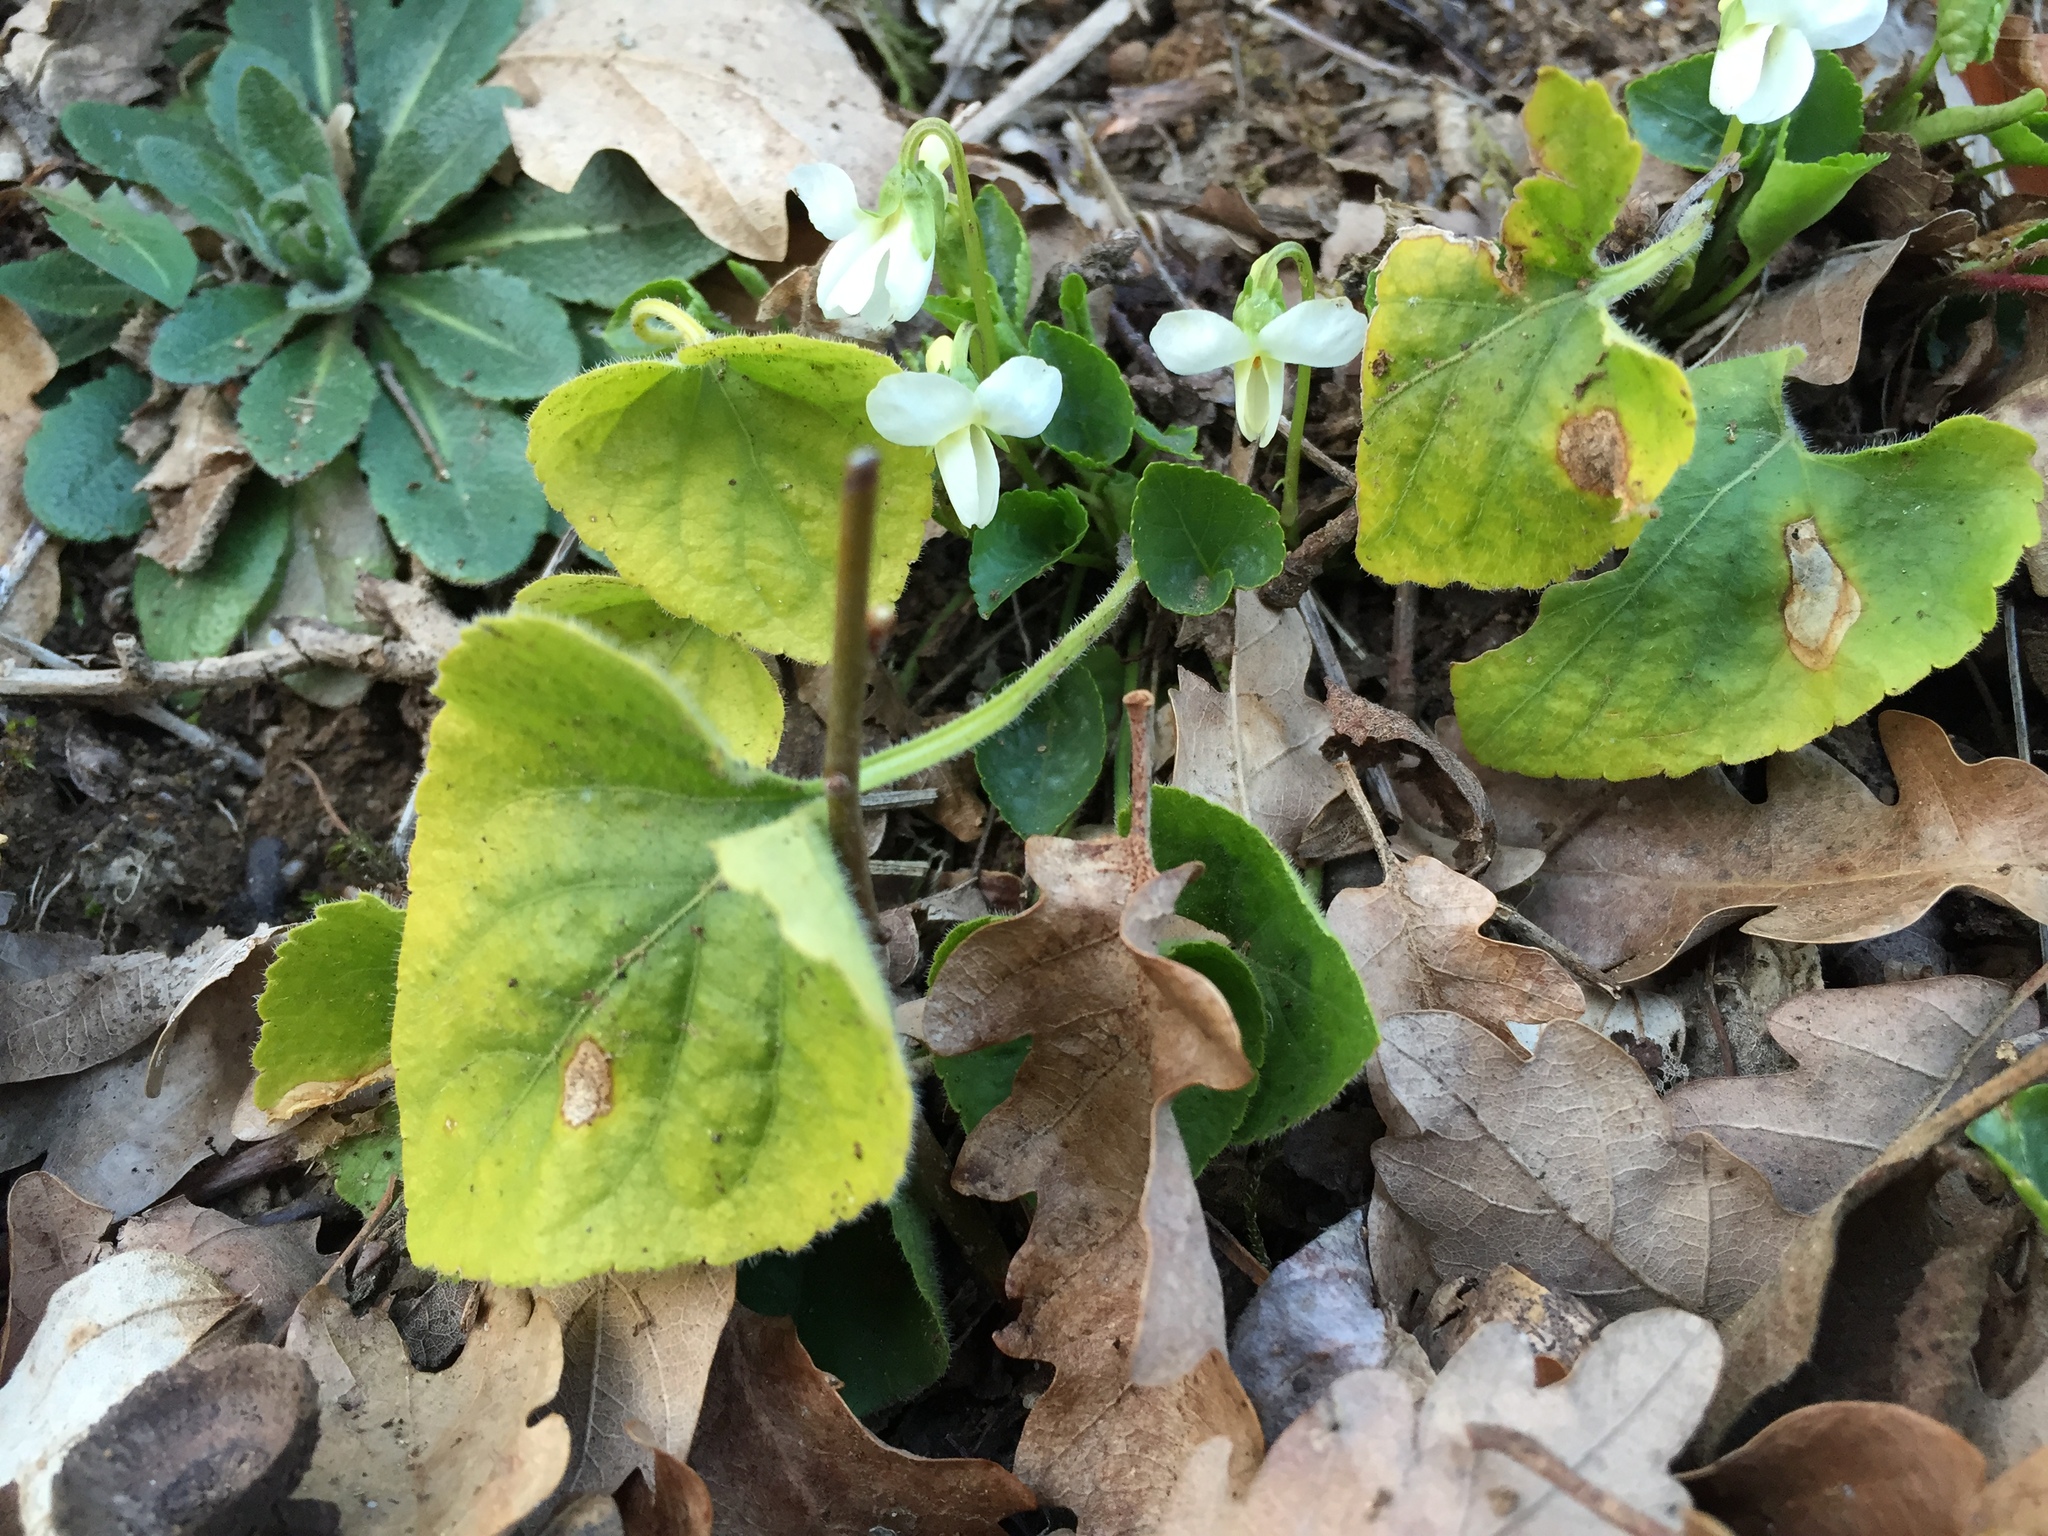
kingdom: Plantae
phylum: Tracheophyta
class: Magnoliopsida
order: Malpighiales
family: Violaceae
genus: Viola
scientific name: Viola alba
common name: White violet
